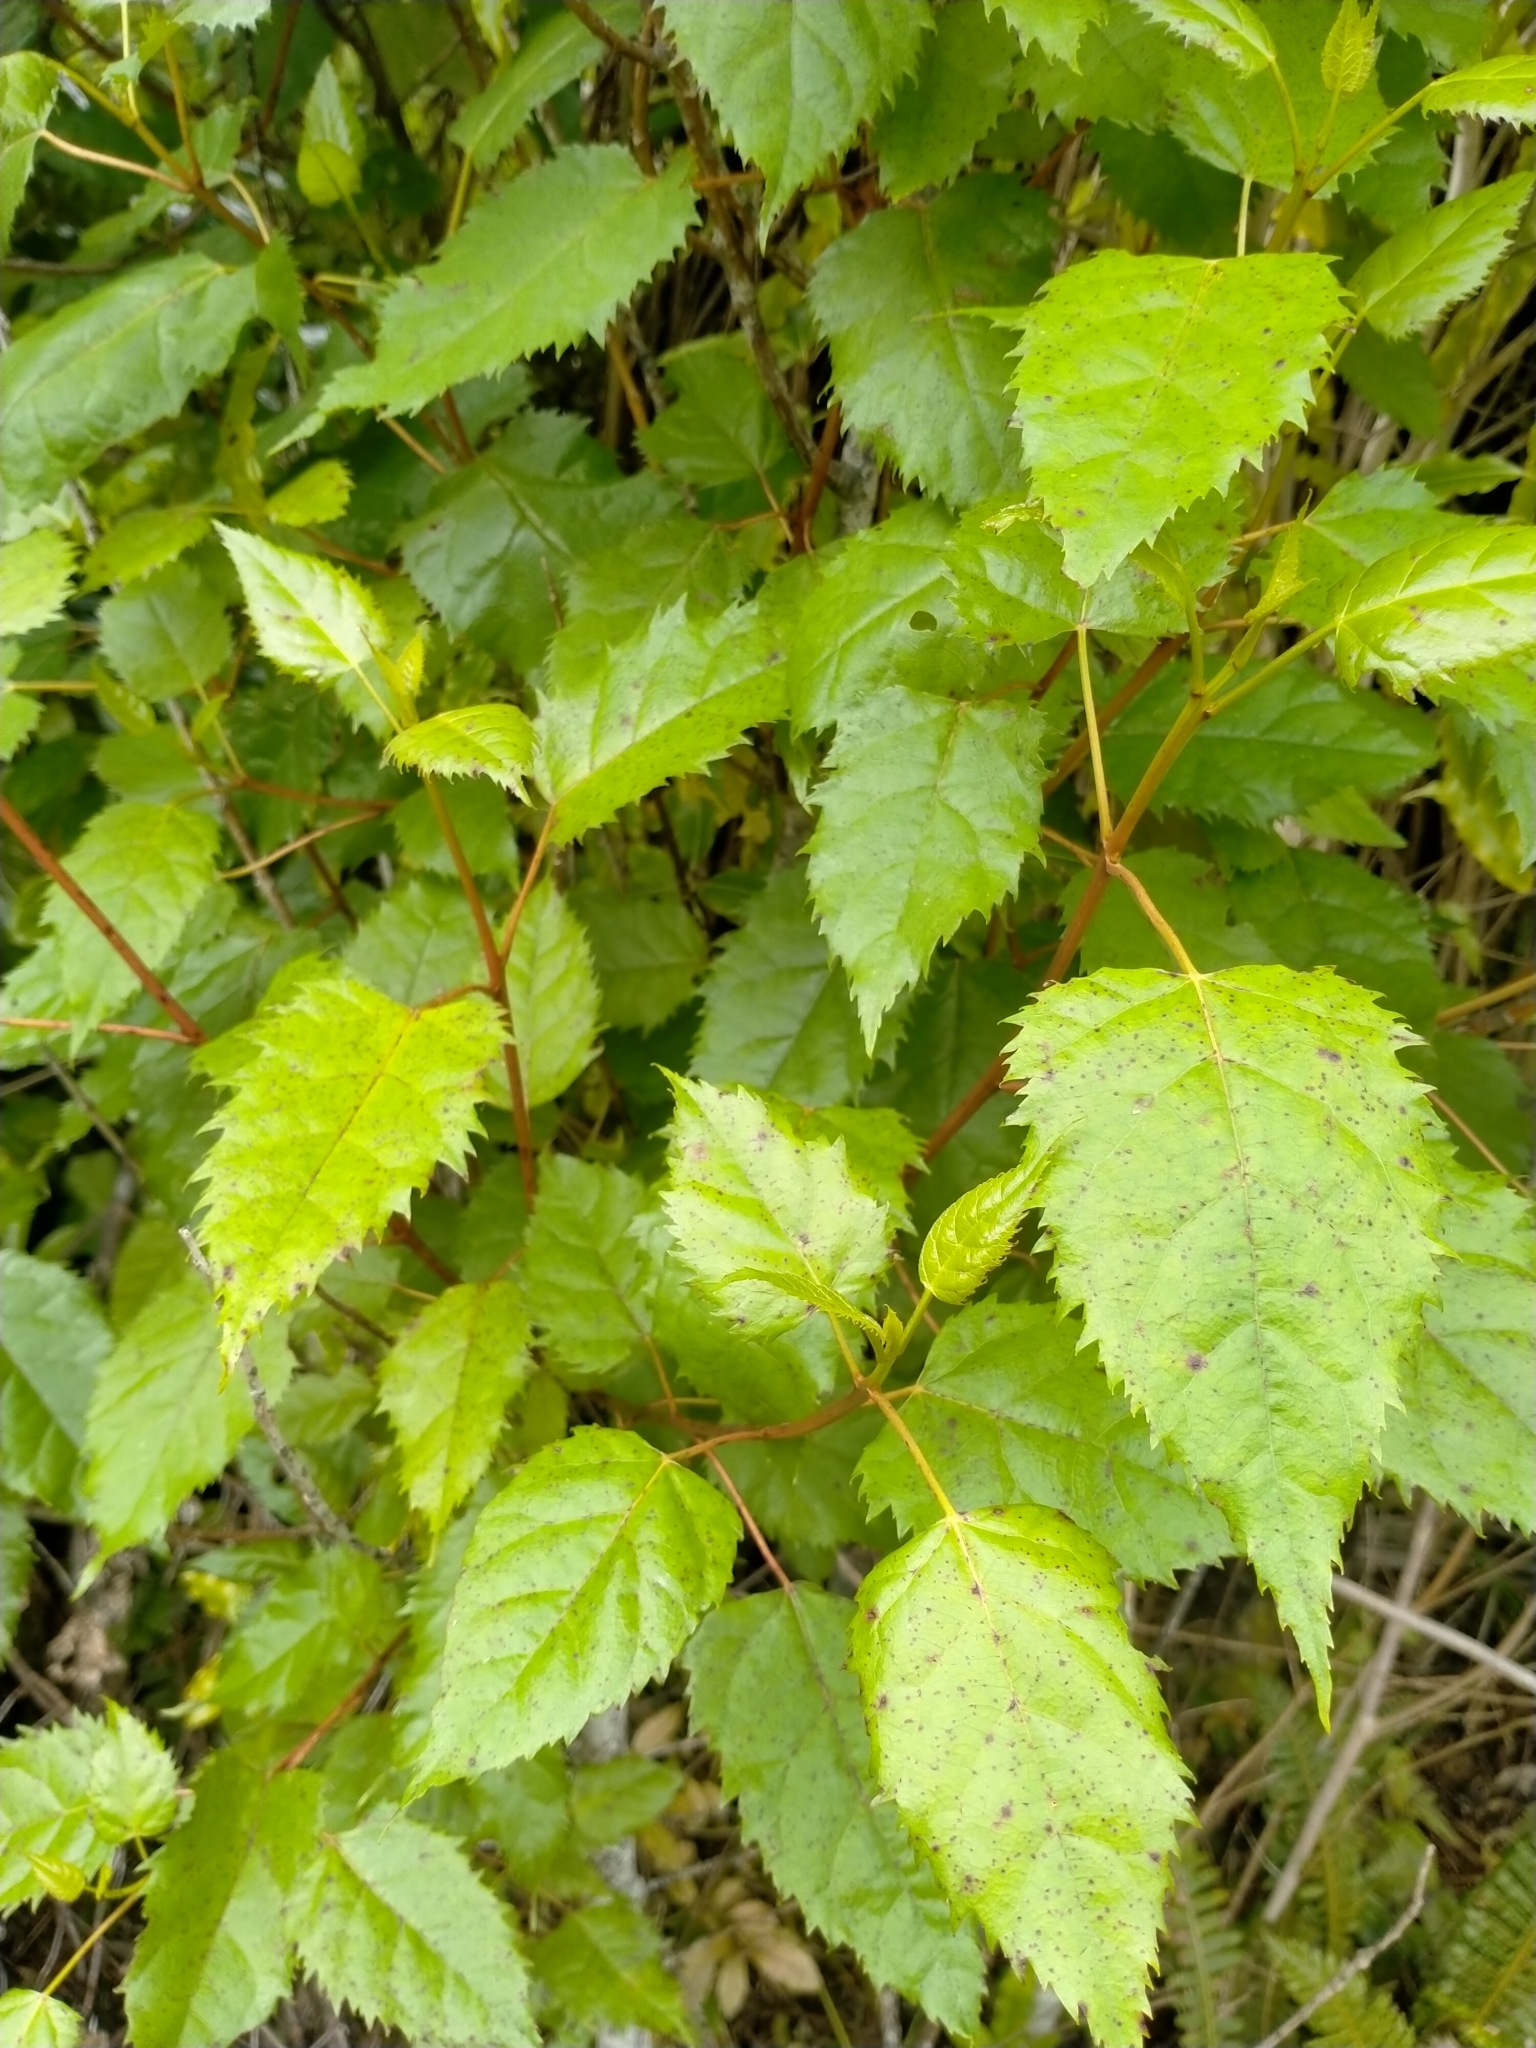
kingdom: Plantae
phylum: Tracheophyta
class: Magnoliopsida
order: Oxalidales
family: Elaeocarpaceae
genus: Aristotelia
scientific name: Aristotelia serrata
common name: New zealand wineberry
